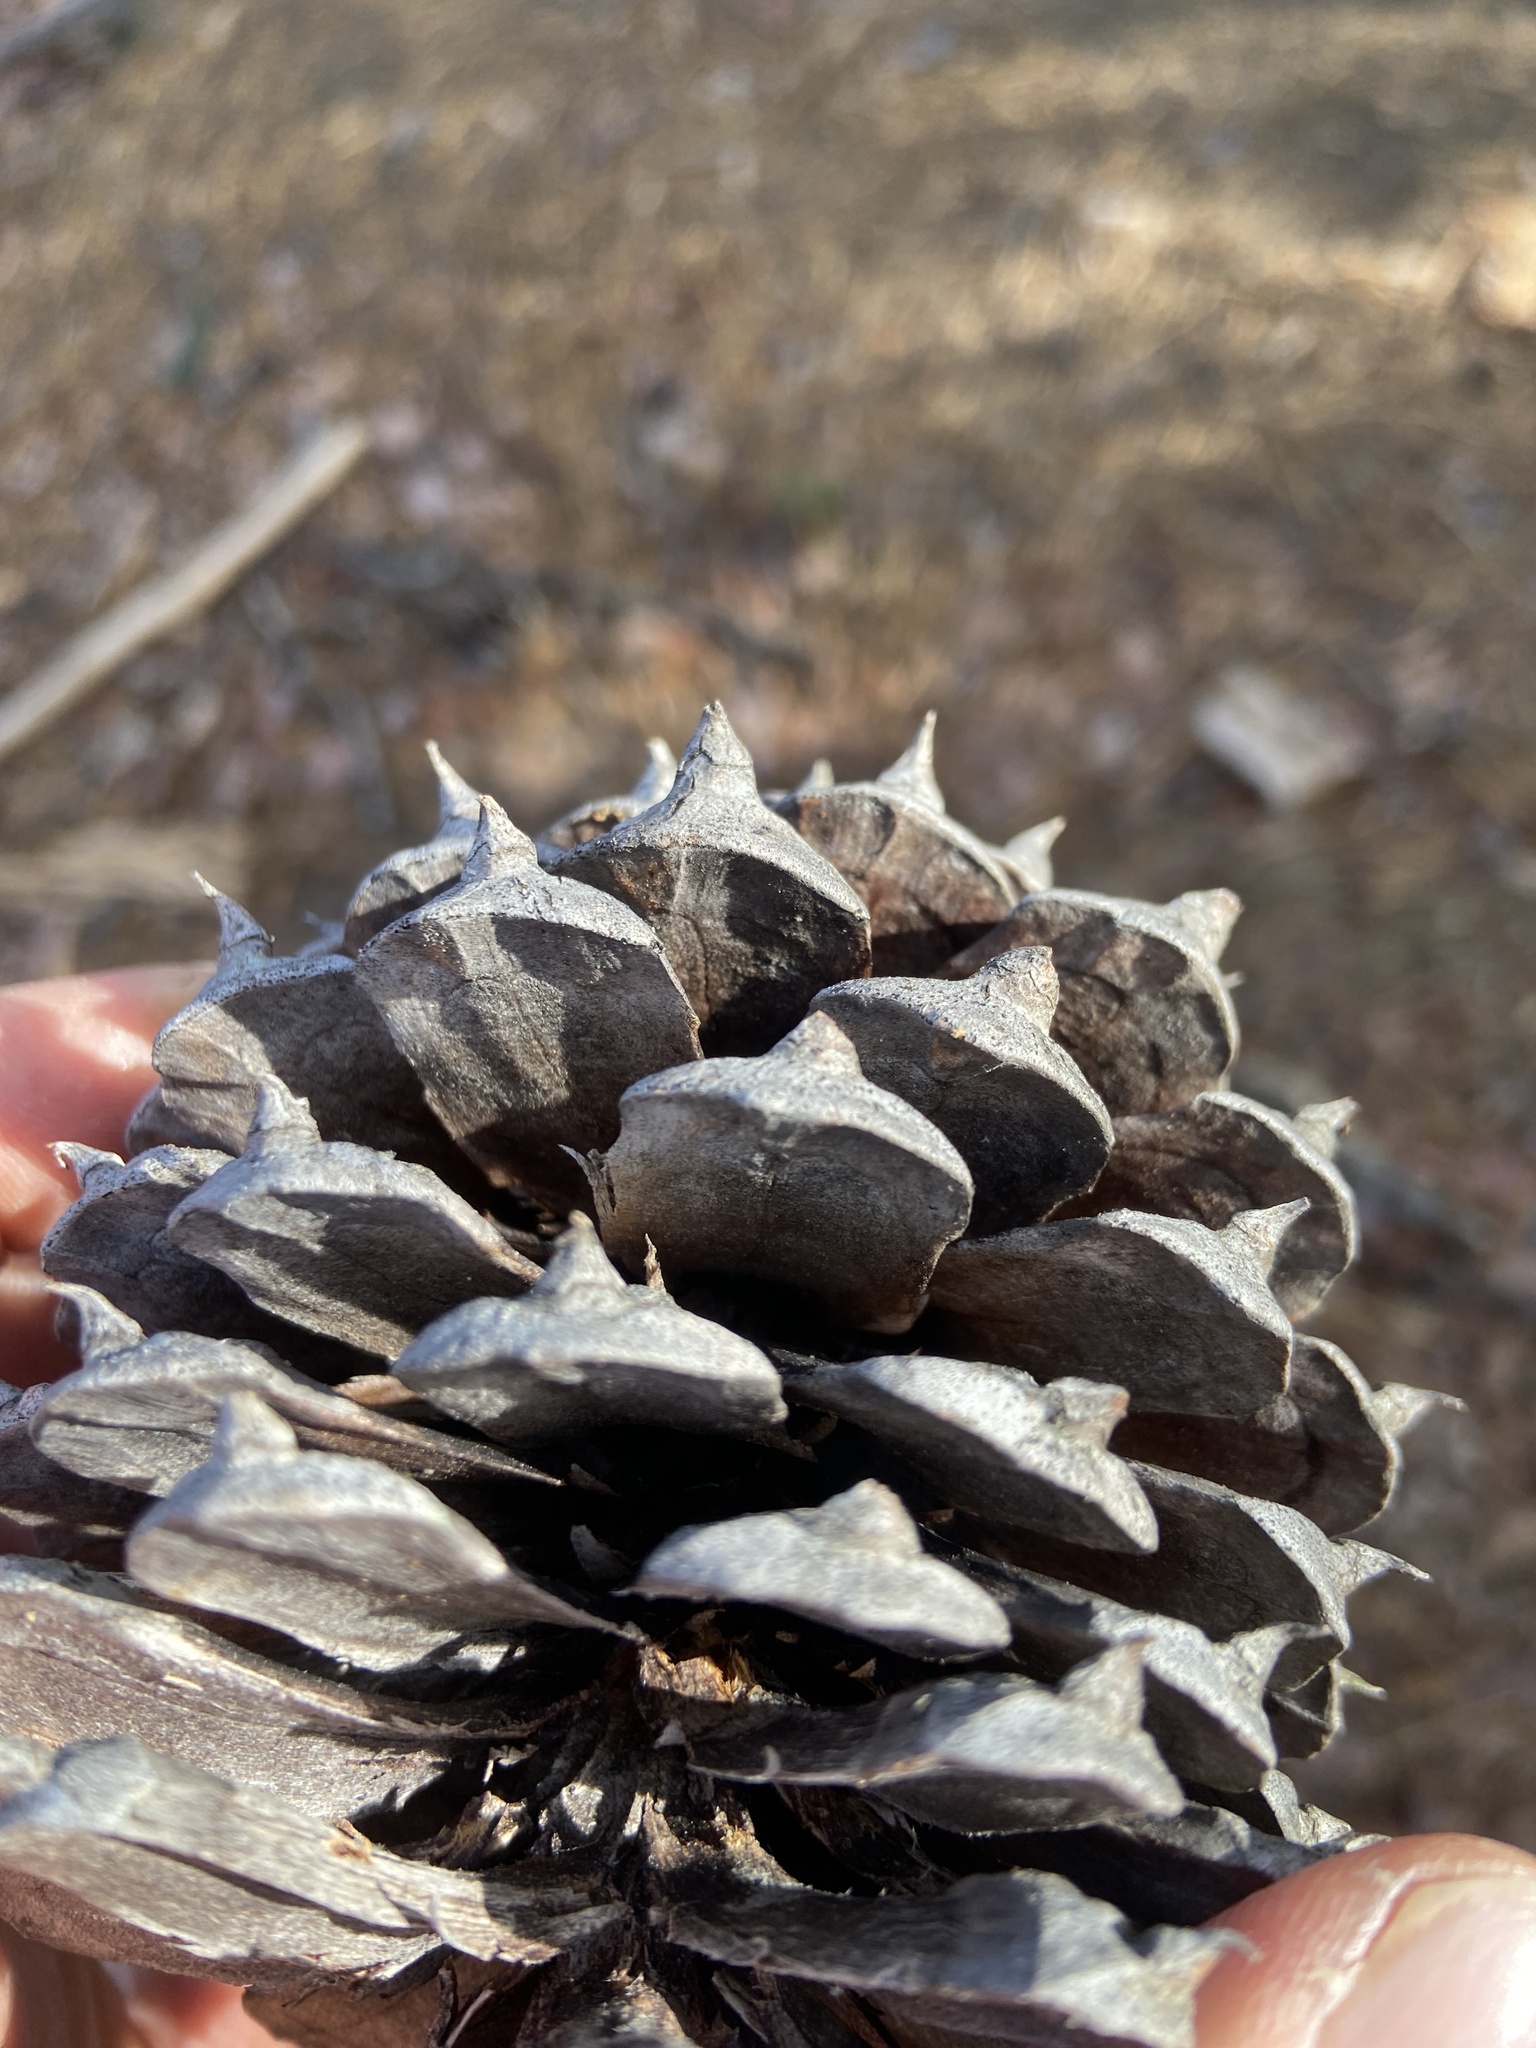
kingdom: Plantae
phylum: Tracheophyta
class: Pinopsida
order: Pinales
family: Pinaceae
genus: Pinus
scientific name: Pinus pungens
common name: Hickory pine
